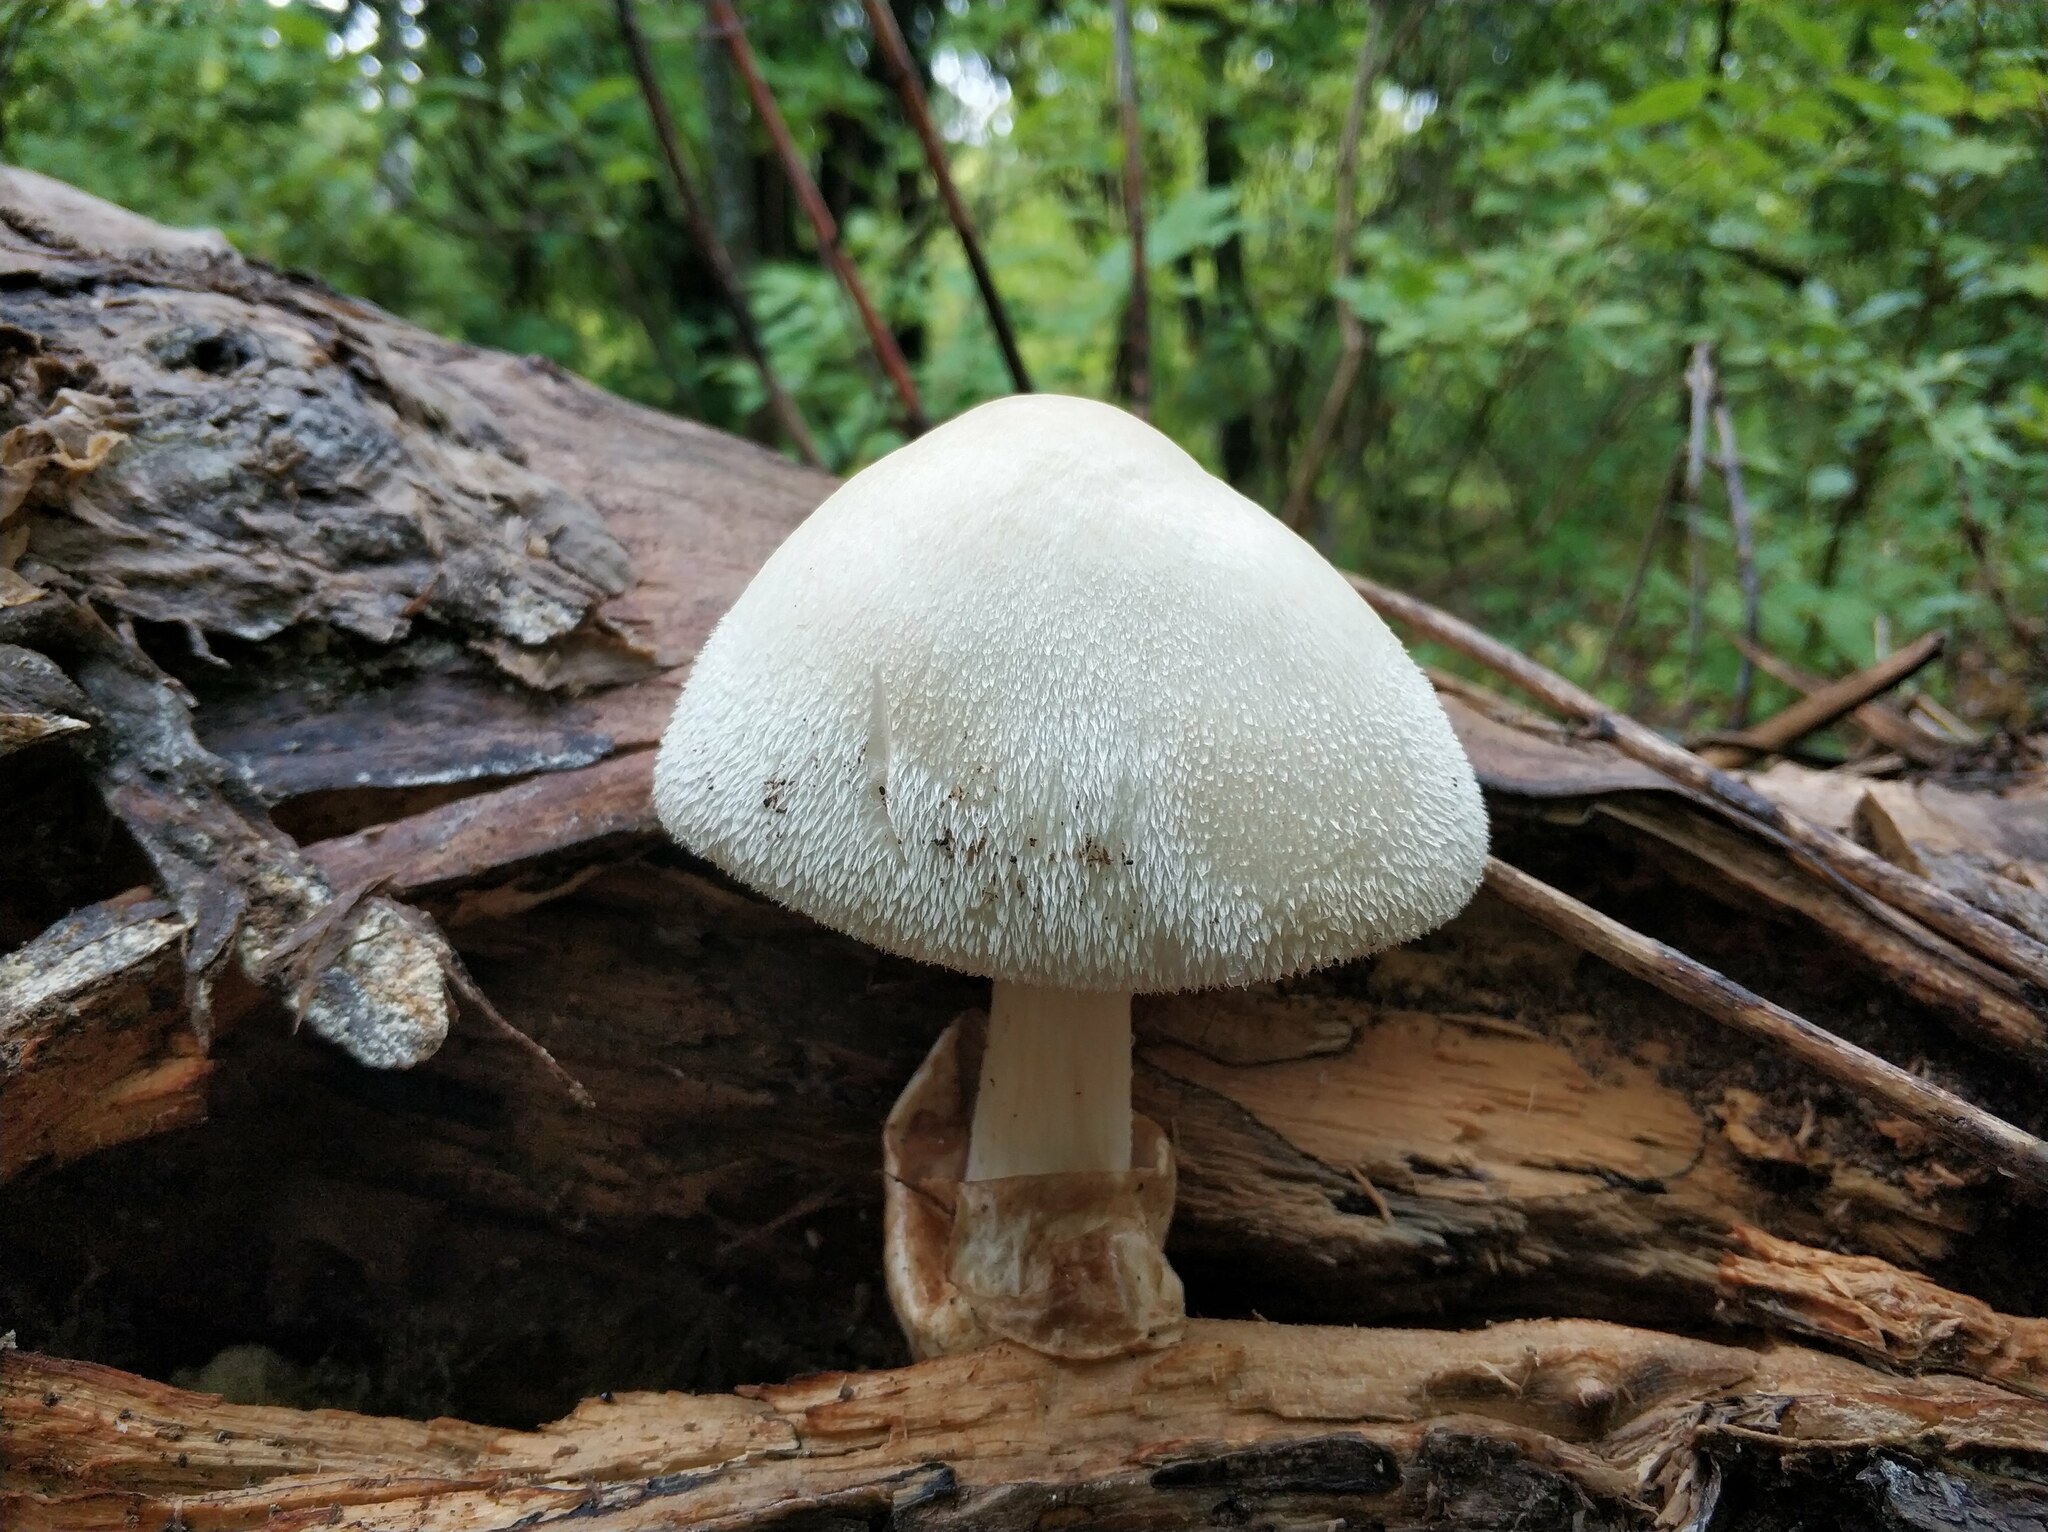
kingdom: Fungi
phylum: Basidiomycota
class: Agaricomycetes
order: Agaricales
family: Pluteaceae
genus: Volvariella
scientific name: Volvariella bombycina
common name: Silky rosegill
